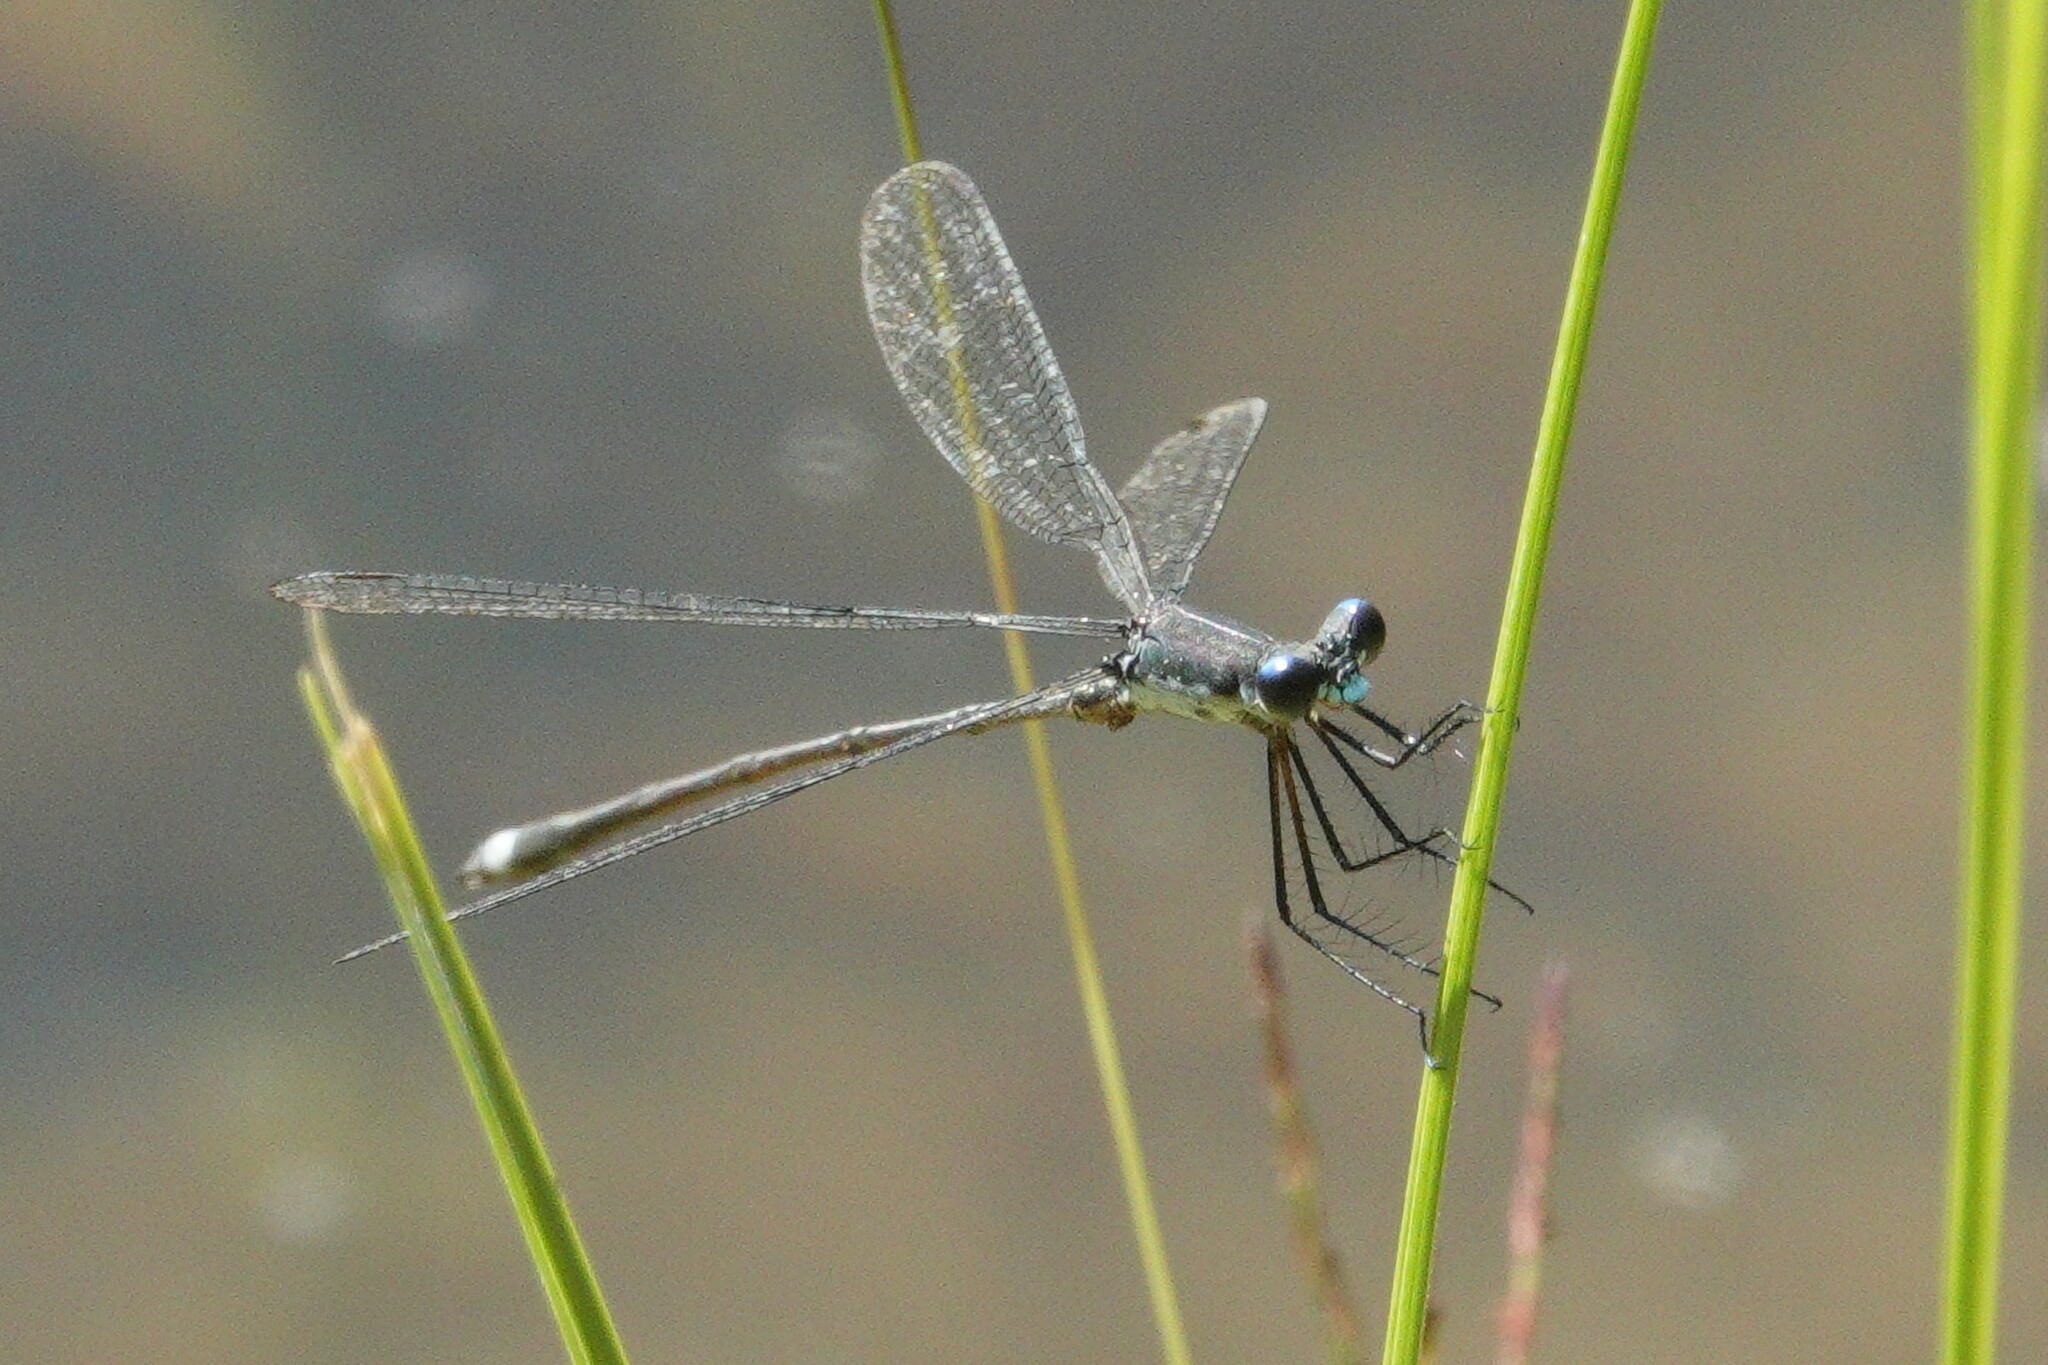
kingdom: Animalia
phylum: Arthropoda
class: Insecta
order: Odonata
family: Lestidae
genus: Lestes
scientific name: Lestes vigilax
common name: Swamp spreadwing
